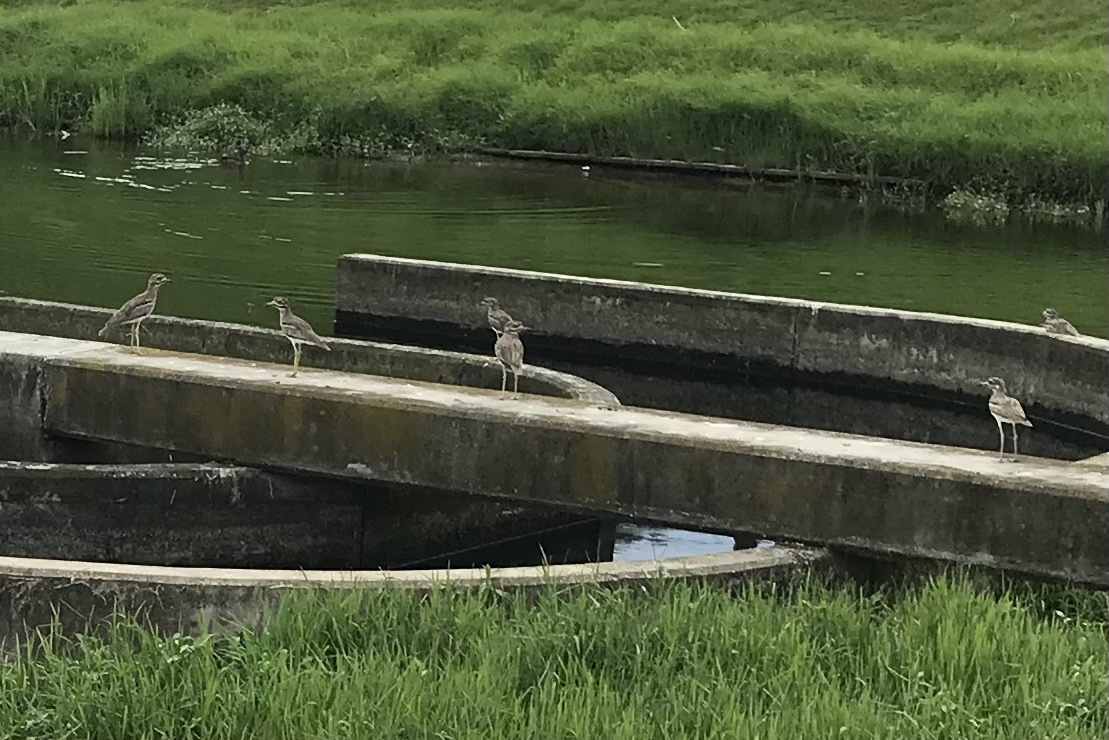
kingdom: Animalia
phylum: Chordata
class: Aves
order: Charadriiformes
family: Burhinidae
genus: Burhinus
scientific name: Burhinus vermiculatus
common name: Water thick-knee
